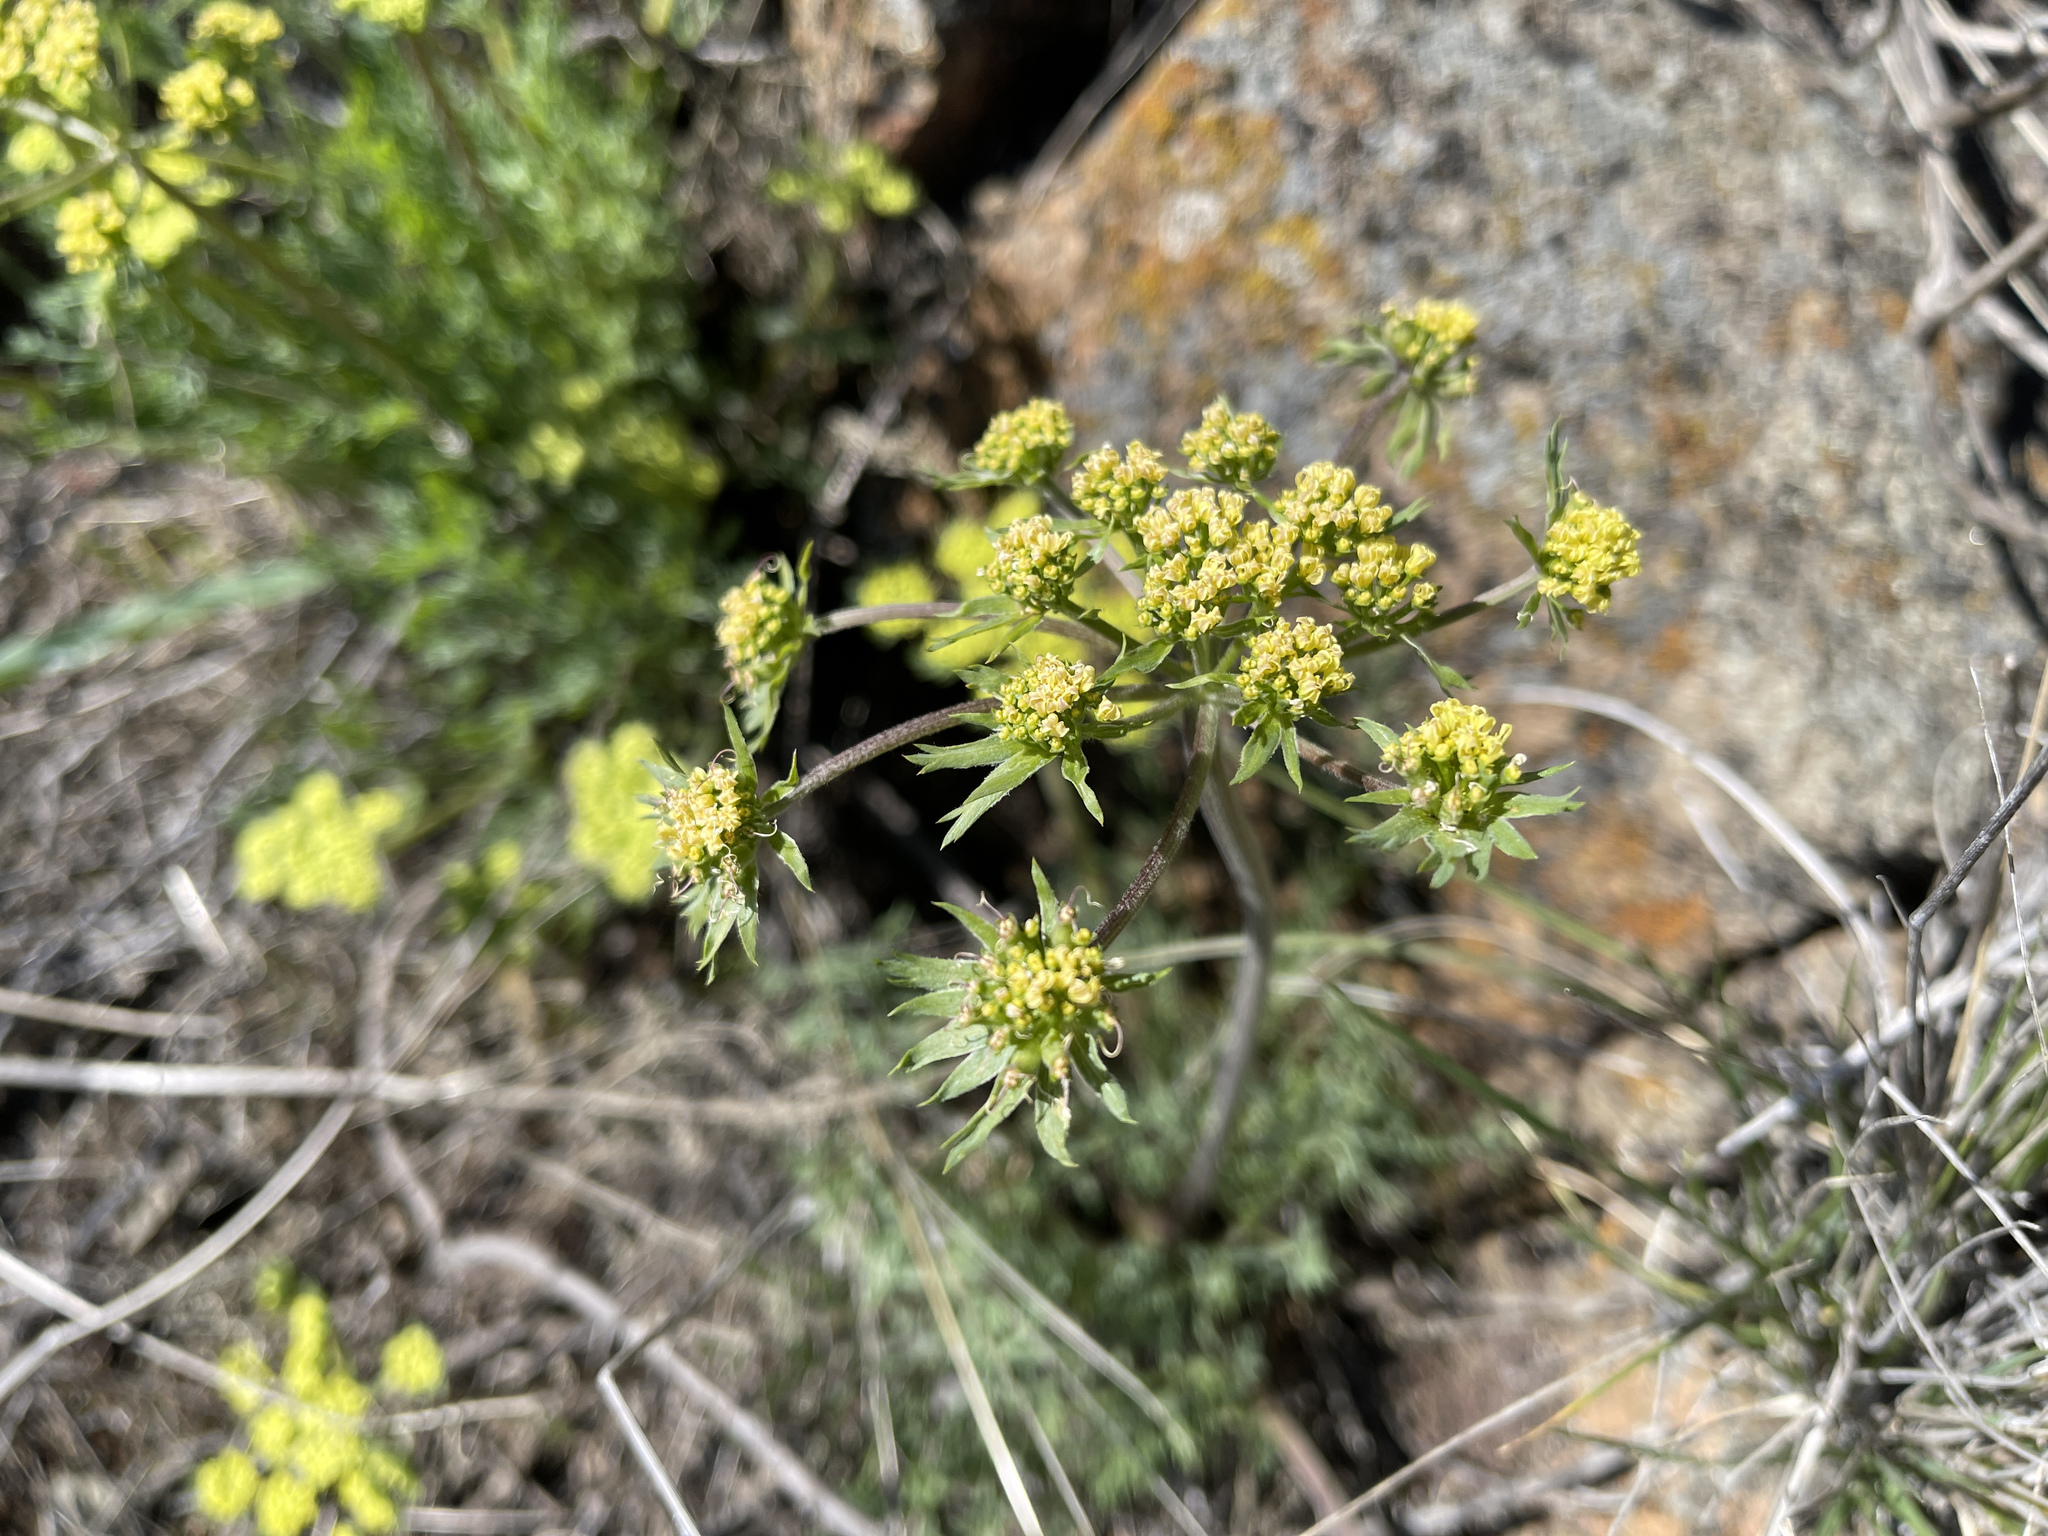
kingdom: Plantae
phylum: Tracheophyta
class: Magnoliopsida
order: Apiales
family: Apiaceae
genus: Lomatium
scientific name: Lomatium macrocarpum
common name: Big-seed biscuitroot
